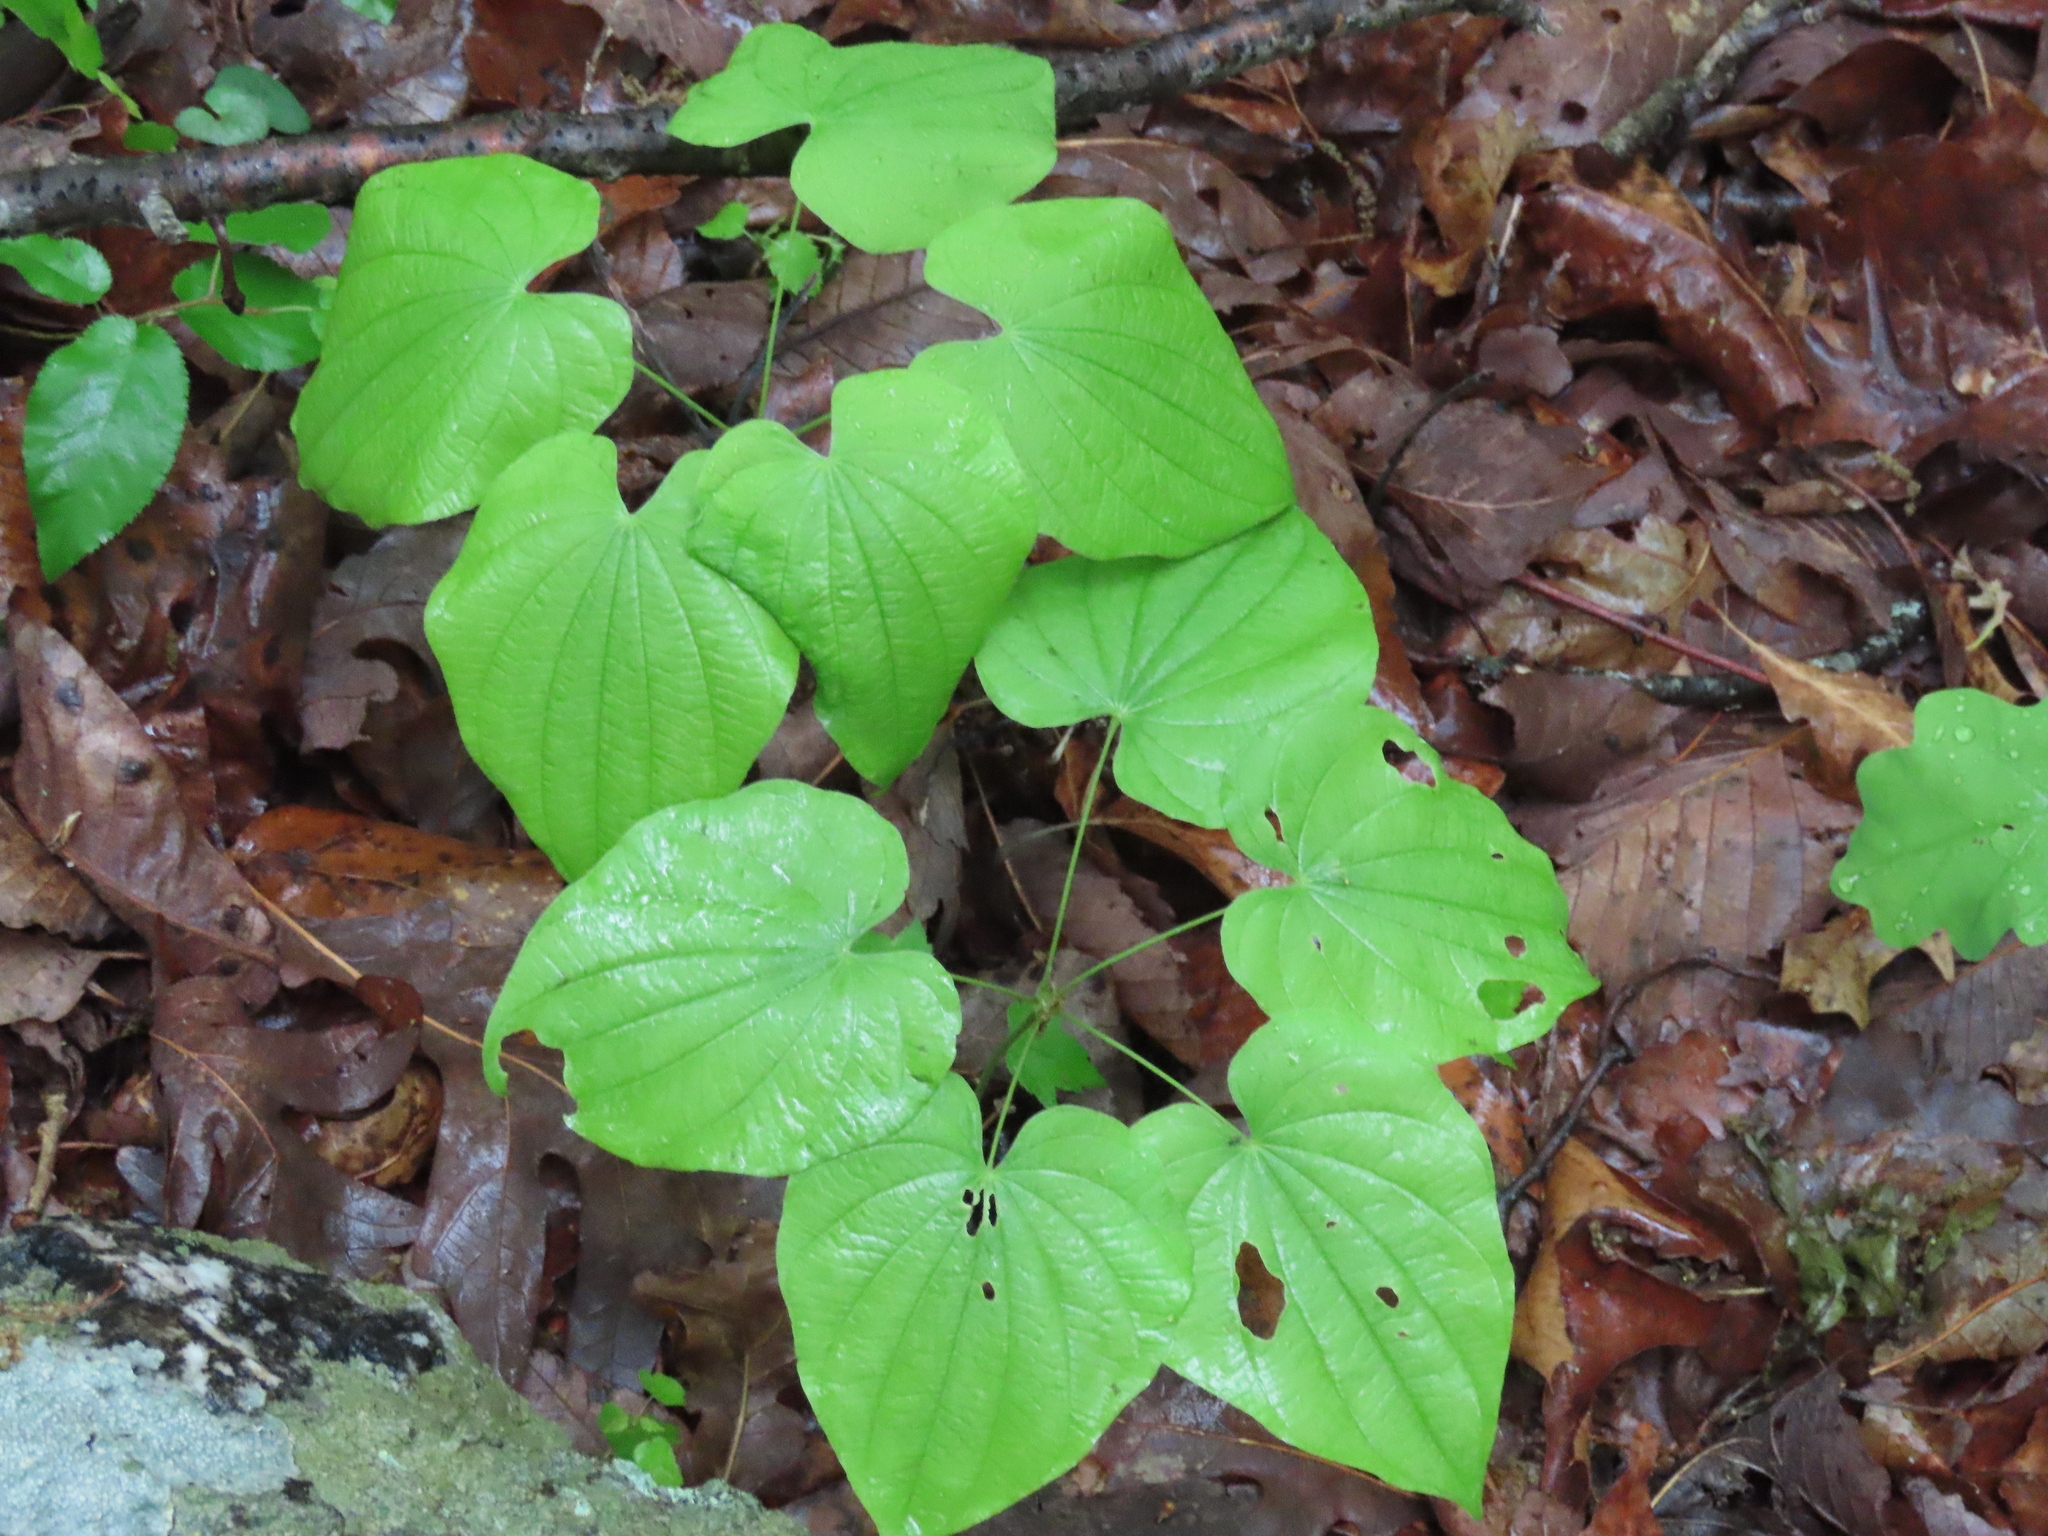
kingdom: Plantae
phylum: Tracheophyta
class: Liliopsida
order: Dioscoreales
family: Dioscoreaceae
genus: Dioscorea
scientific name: Dioscorea villosa
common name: Wild yam
